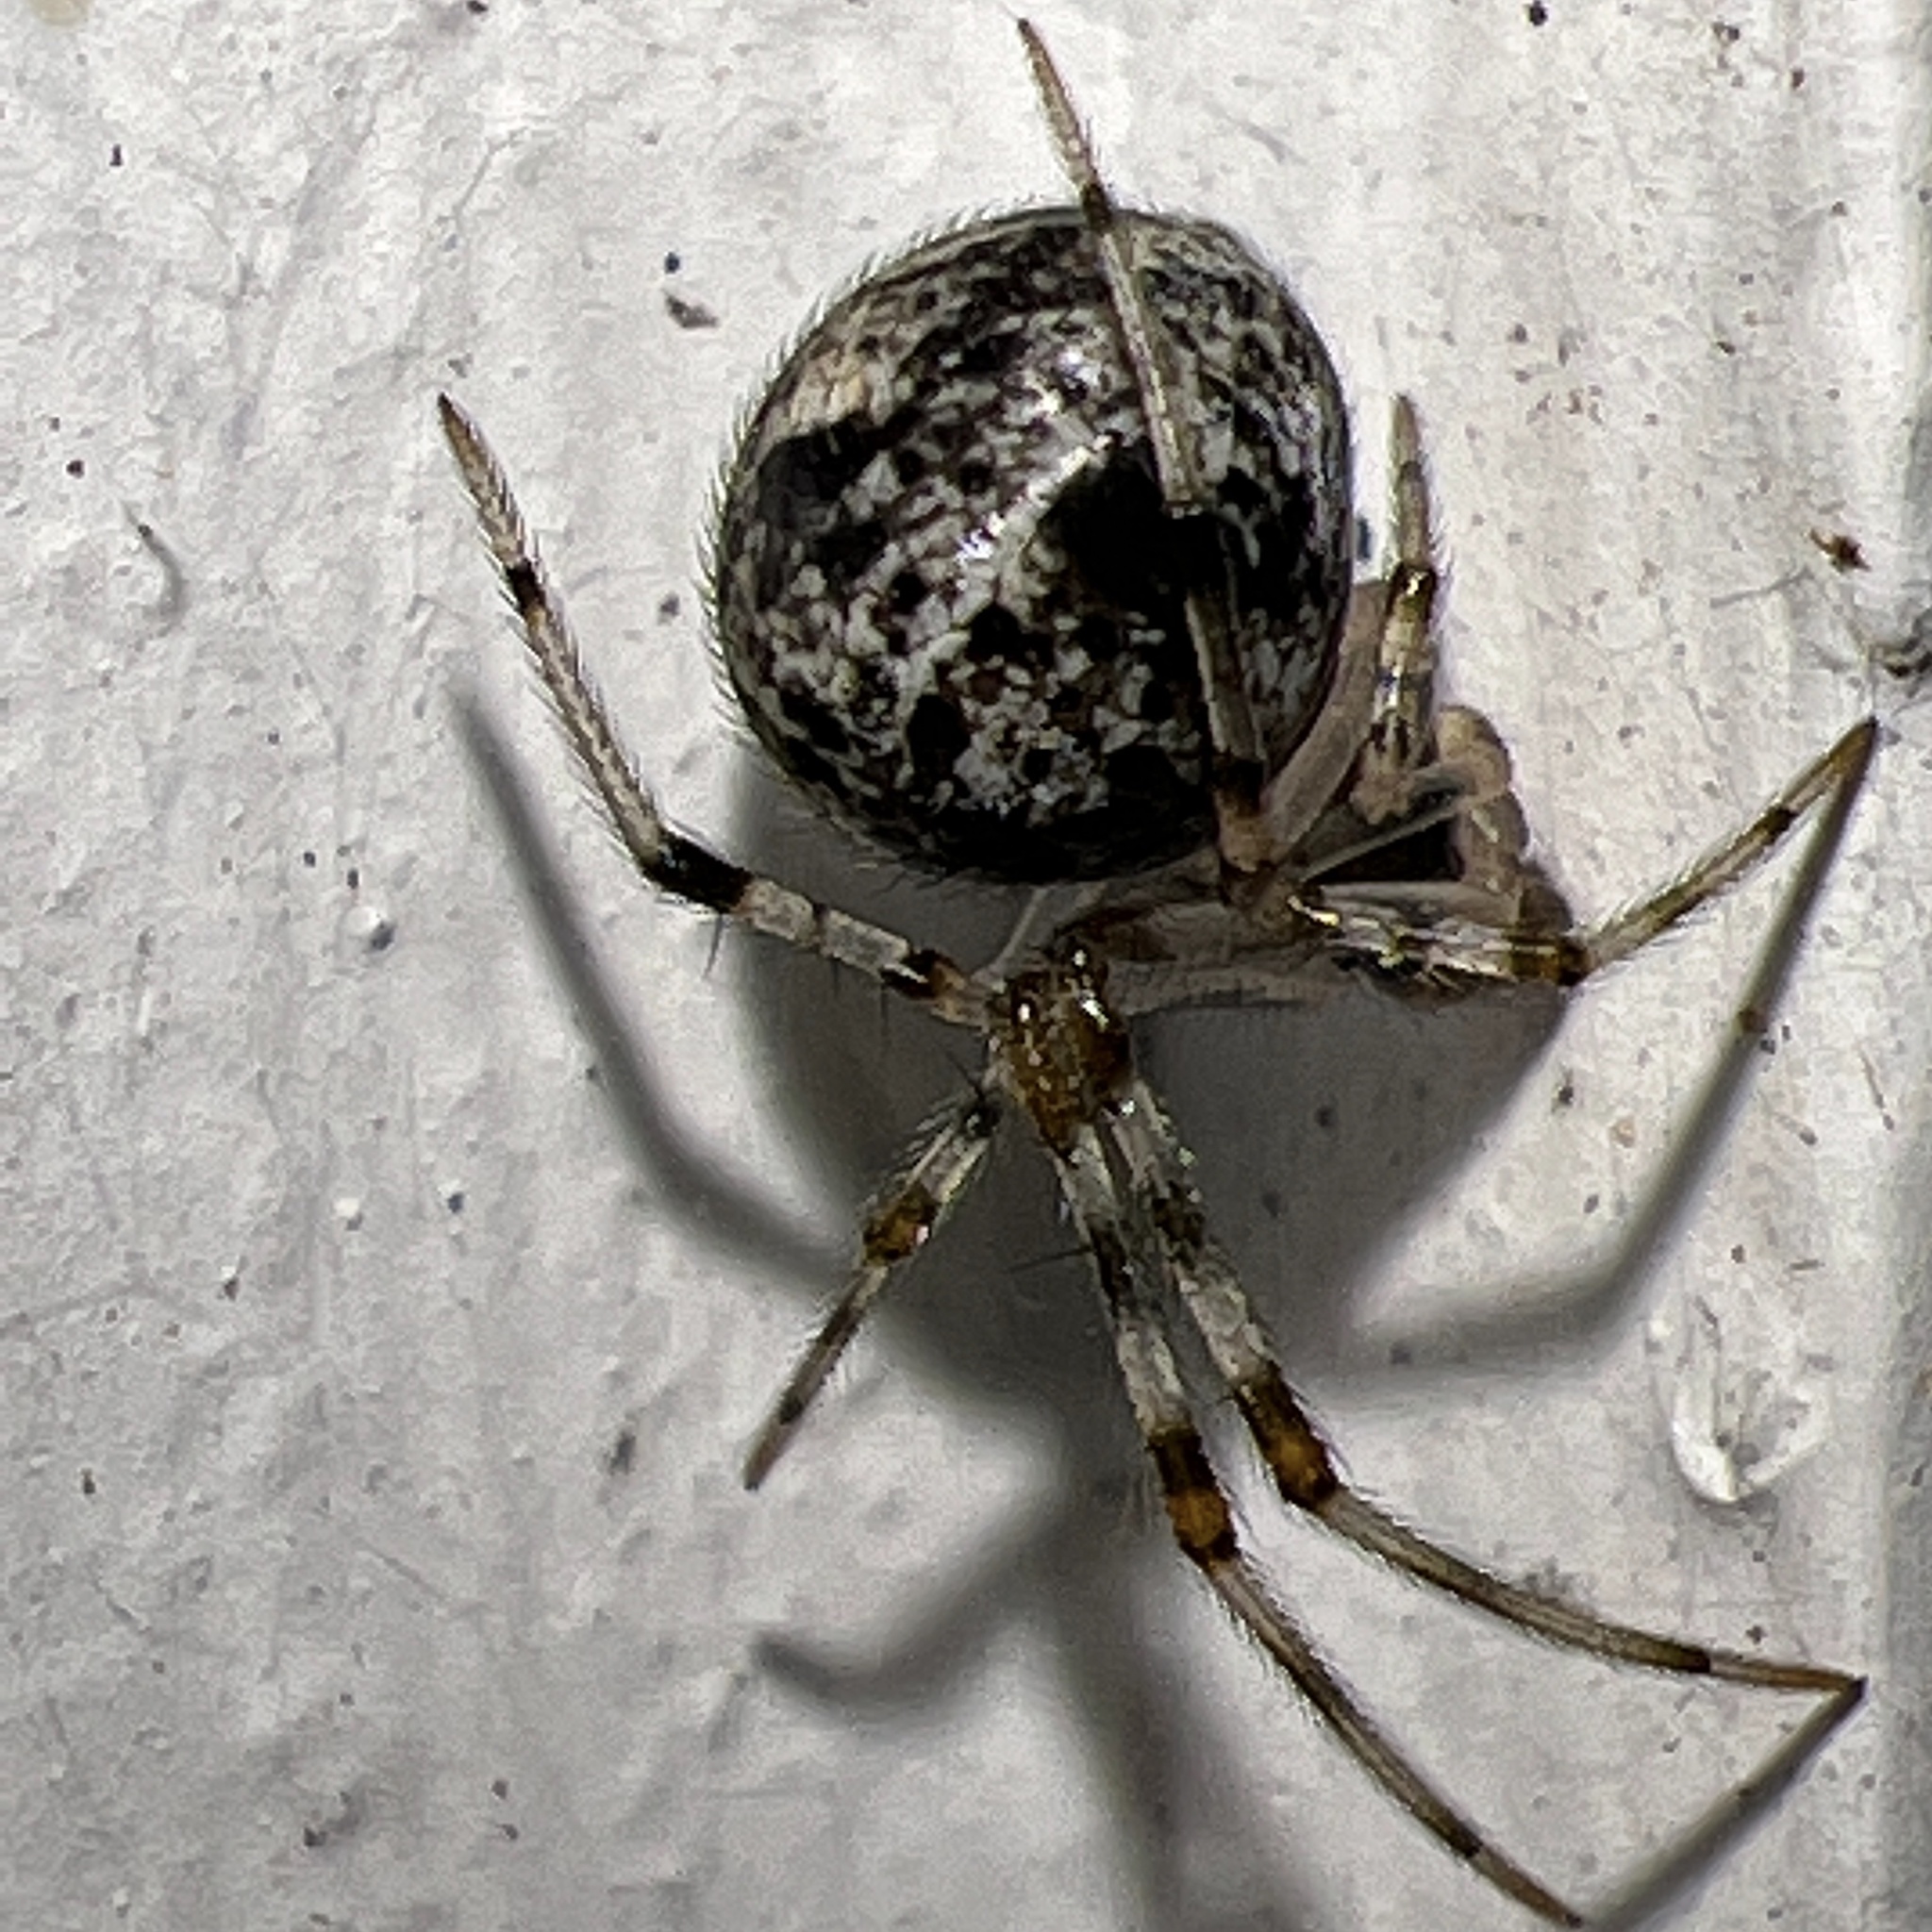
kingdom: Animalia
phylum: Arthropoda
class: Arachnida
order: Araneae
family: Theridiidae
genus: Parasteatoda
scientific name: Parasteatoda tepidariorum
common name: Common house spider
